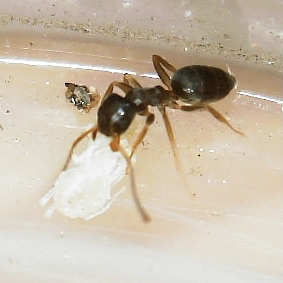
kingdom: Animalia
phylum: Arthropoda
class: Insecta
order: Hymenoptera
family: Formicidae
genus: Tapinoma
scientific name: Tapinoma sessile
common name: Odorous house ant
